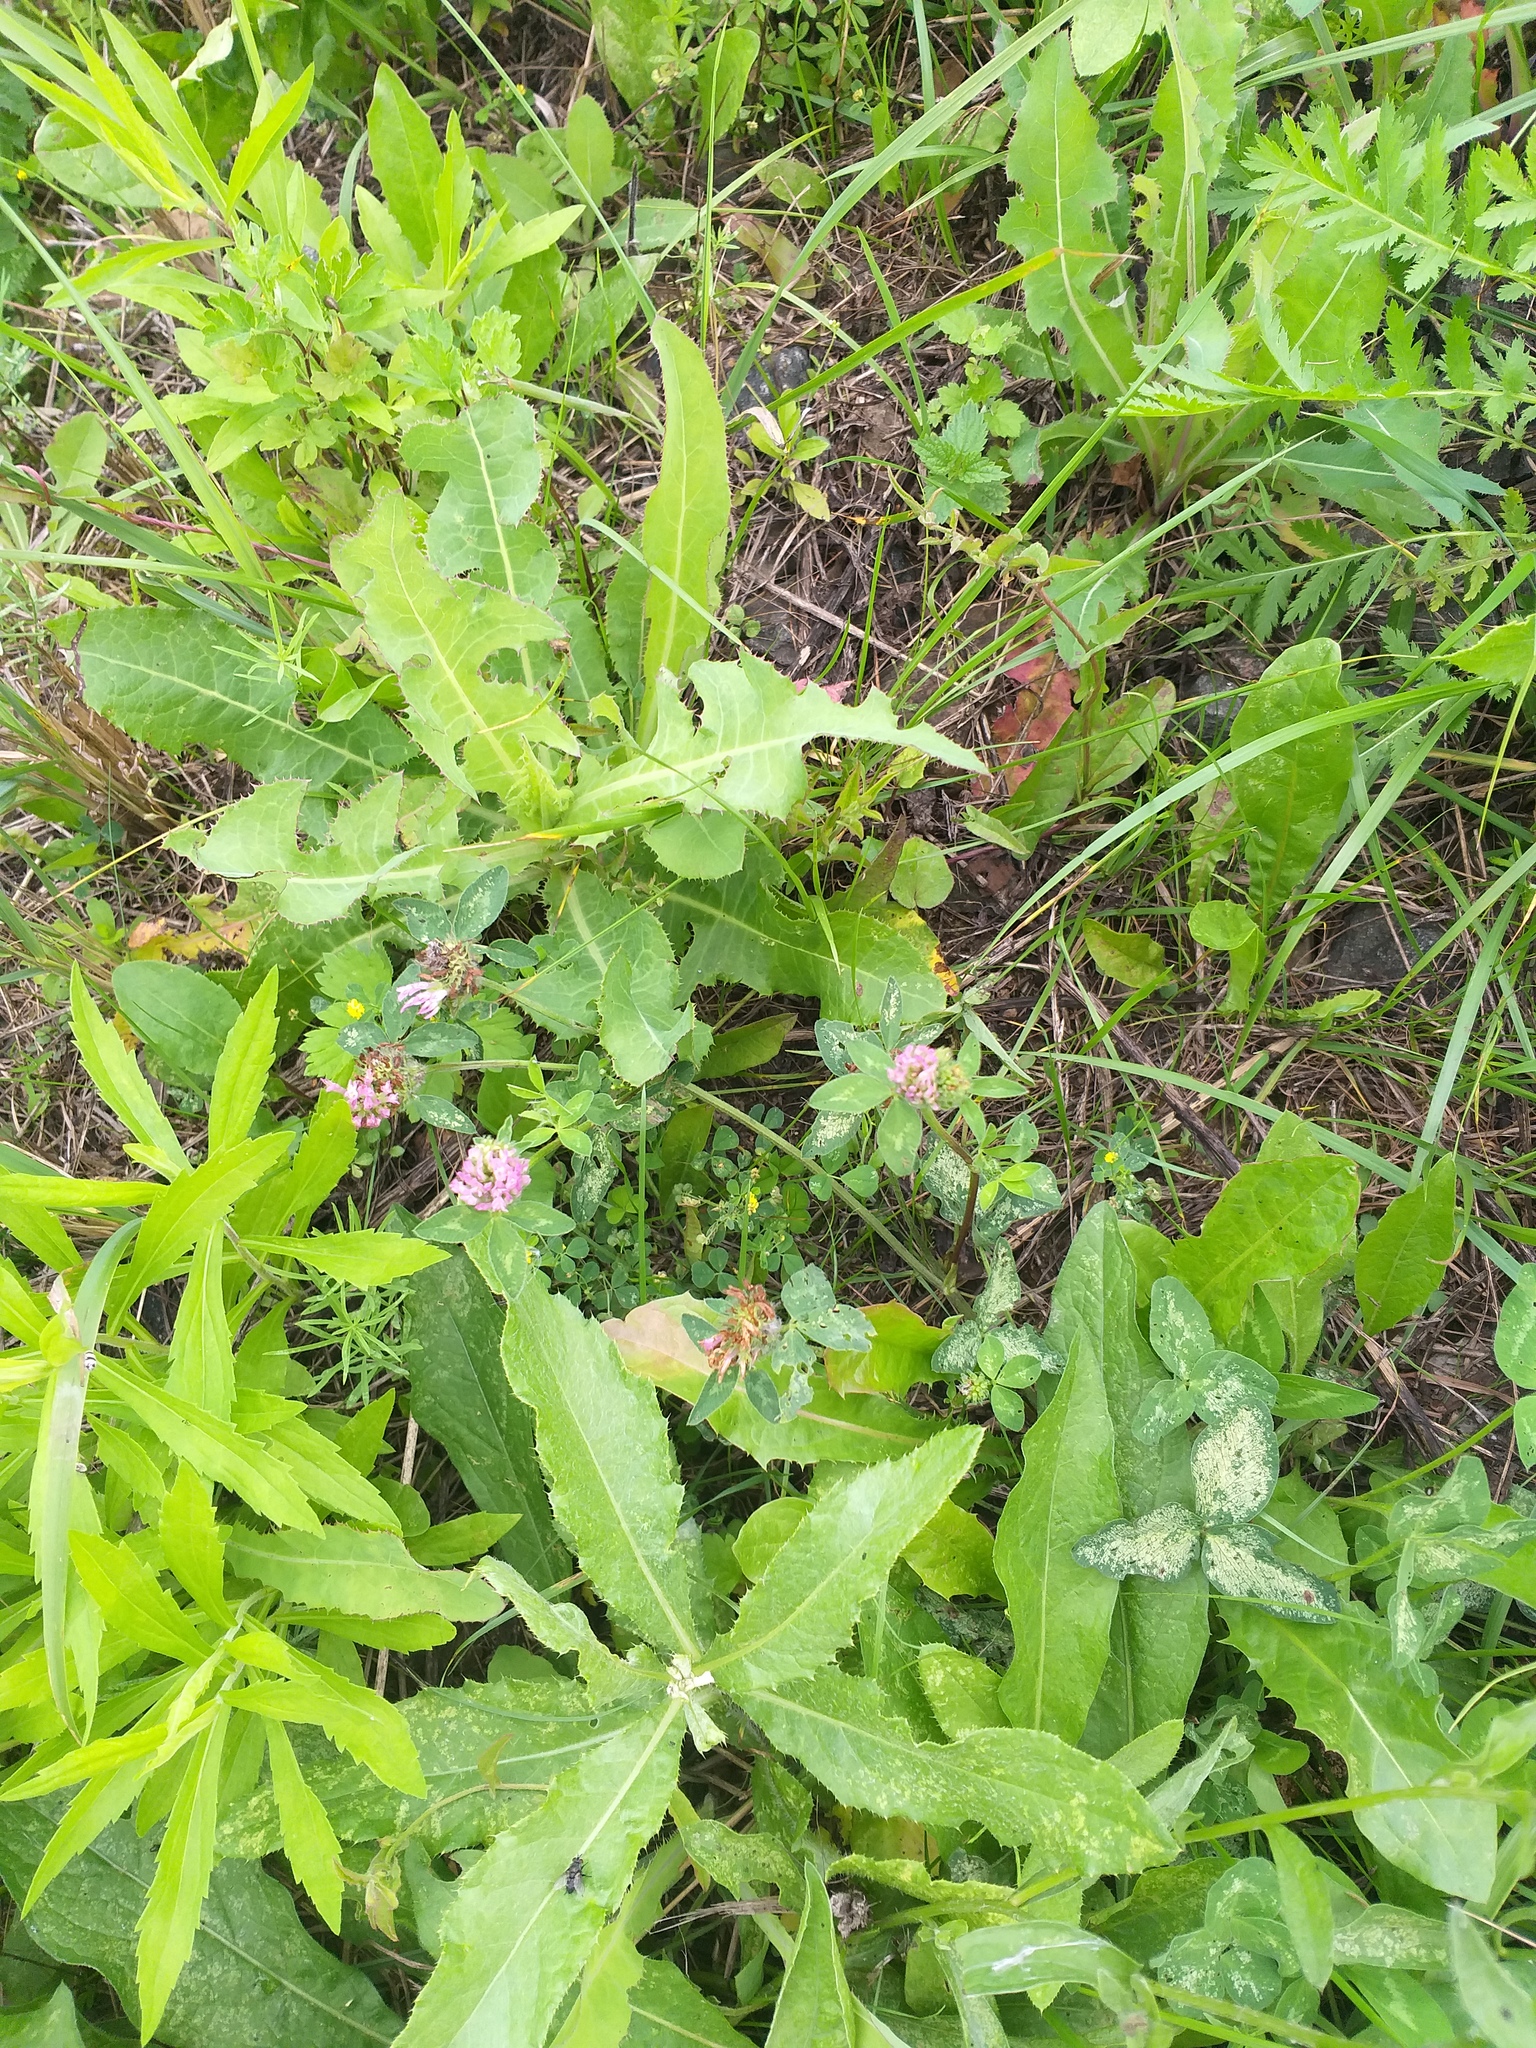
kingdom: Plantae
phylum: Tracheophyta
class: Magnoliopsida
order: Fabales
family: Fabaceae
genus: Trifolium
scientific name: Trifolium pratense
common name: Red clover
